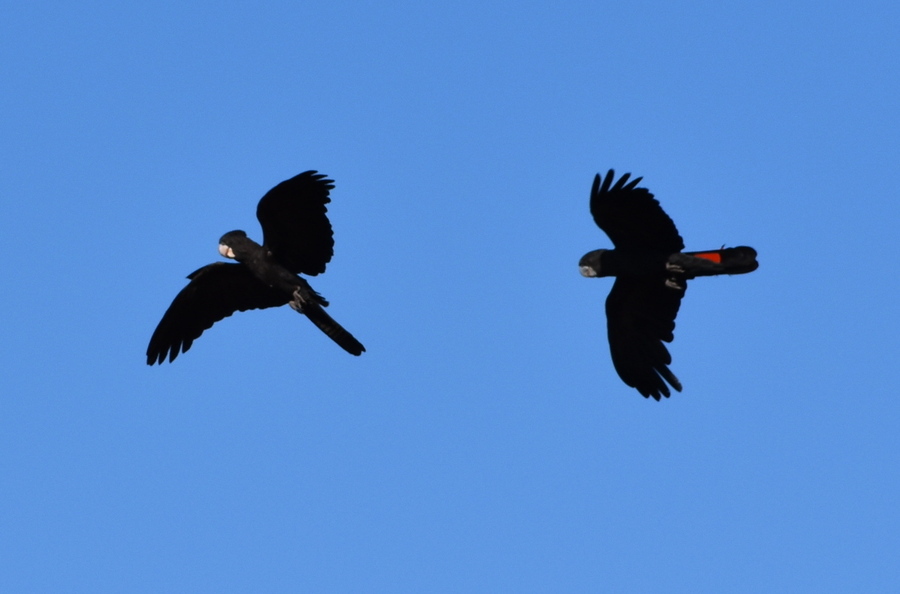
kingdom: Animalia
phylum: Chordata
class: Aves
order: Psittaciformes
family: Psittacidae
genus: Calyptorhynchus
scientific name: Calyptorhynchus banksii
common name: Red-tailed black cockatoo
